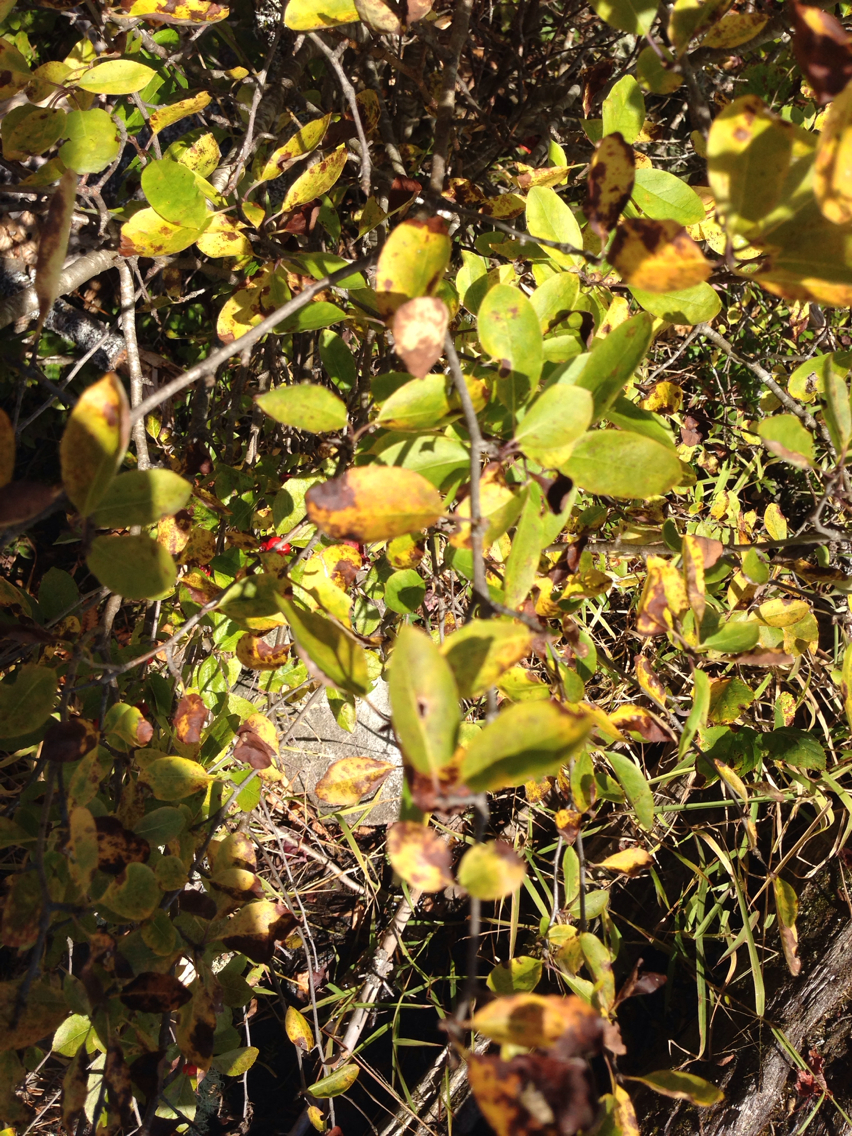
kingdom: Plantae
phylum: Tracheophyta
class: Magnoliopsida
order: Aquifoliales
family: Aquifoliaceae
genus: Ilex
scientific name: Ilex mucronata
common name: Catberry
